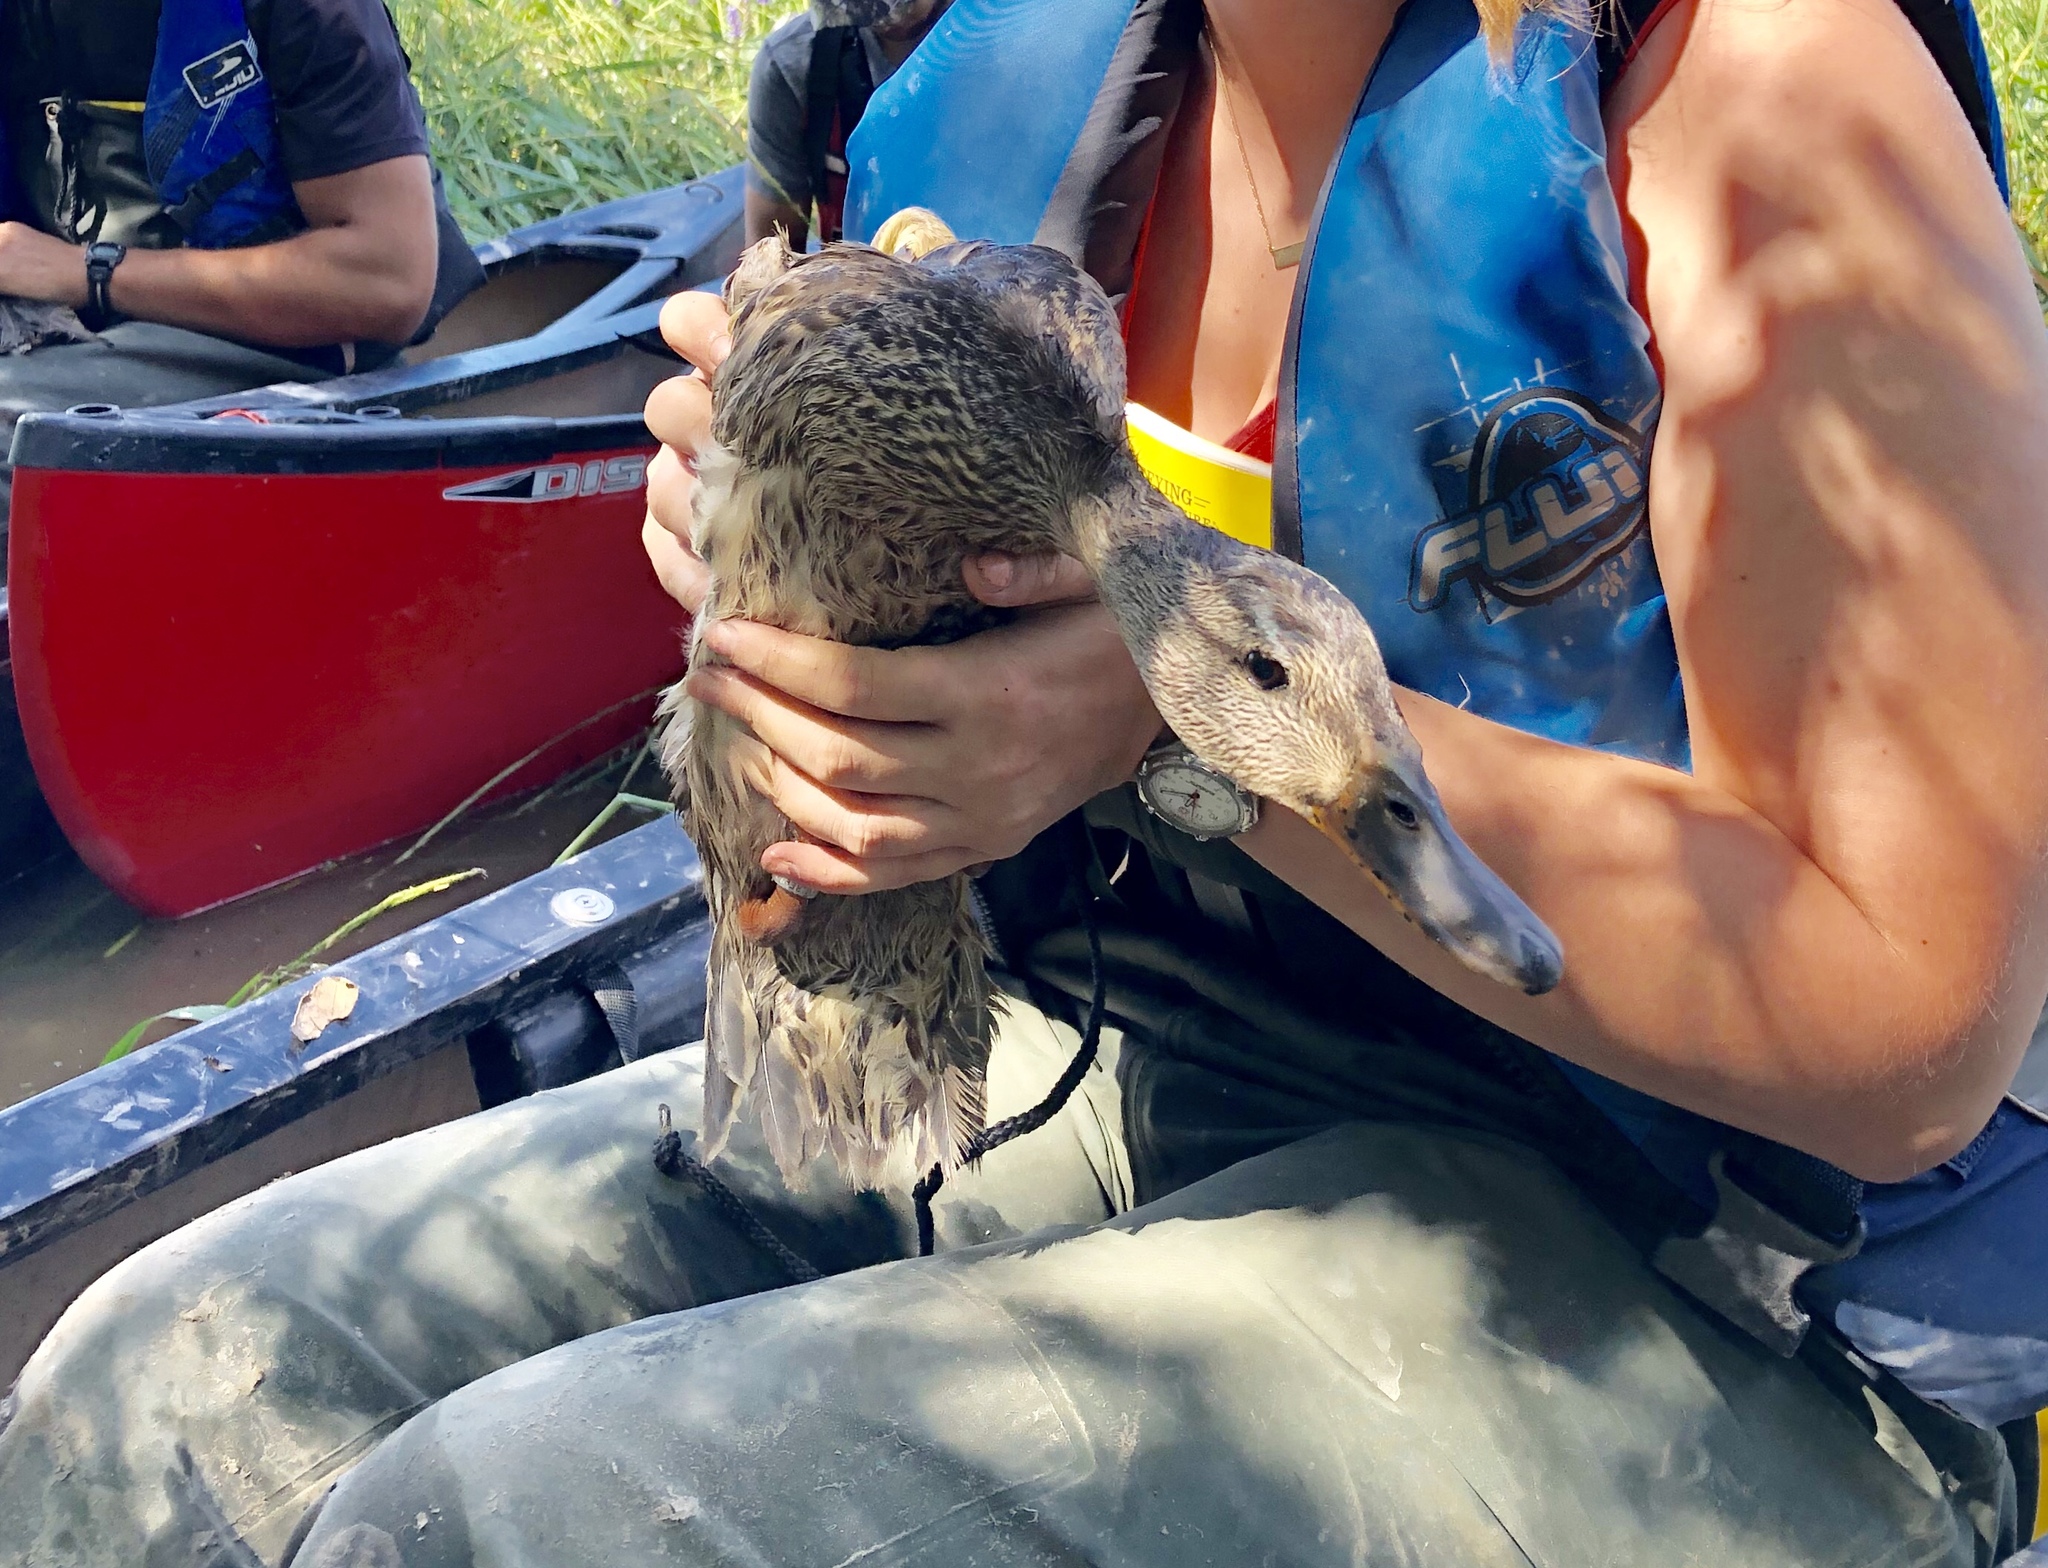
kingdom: Animalia
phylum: Chordata
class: Aves
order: Anseriformes
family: Anatidae
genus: Anas
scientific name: Anas platyrhynchos
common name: Mallard
